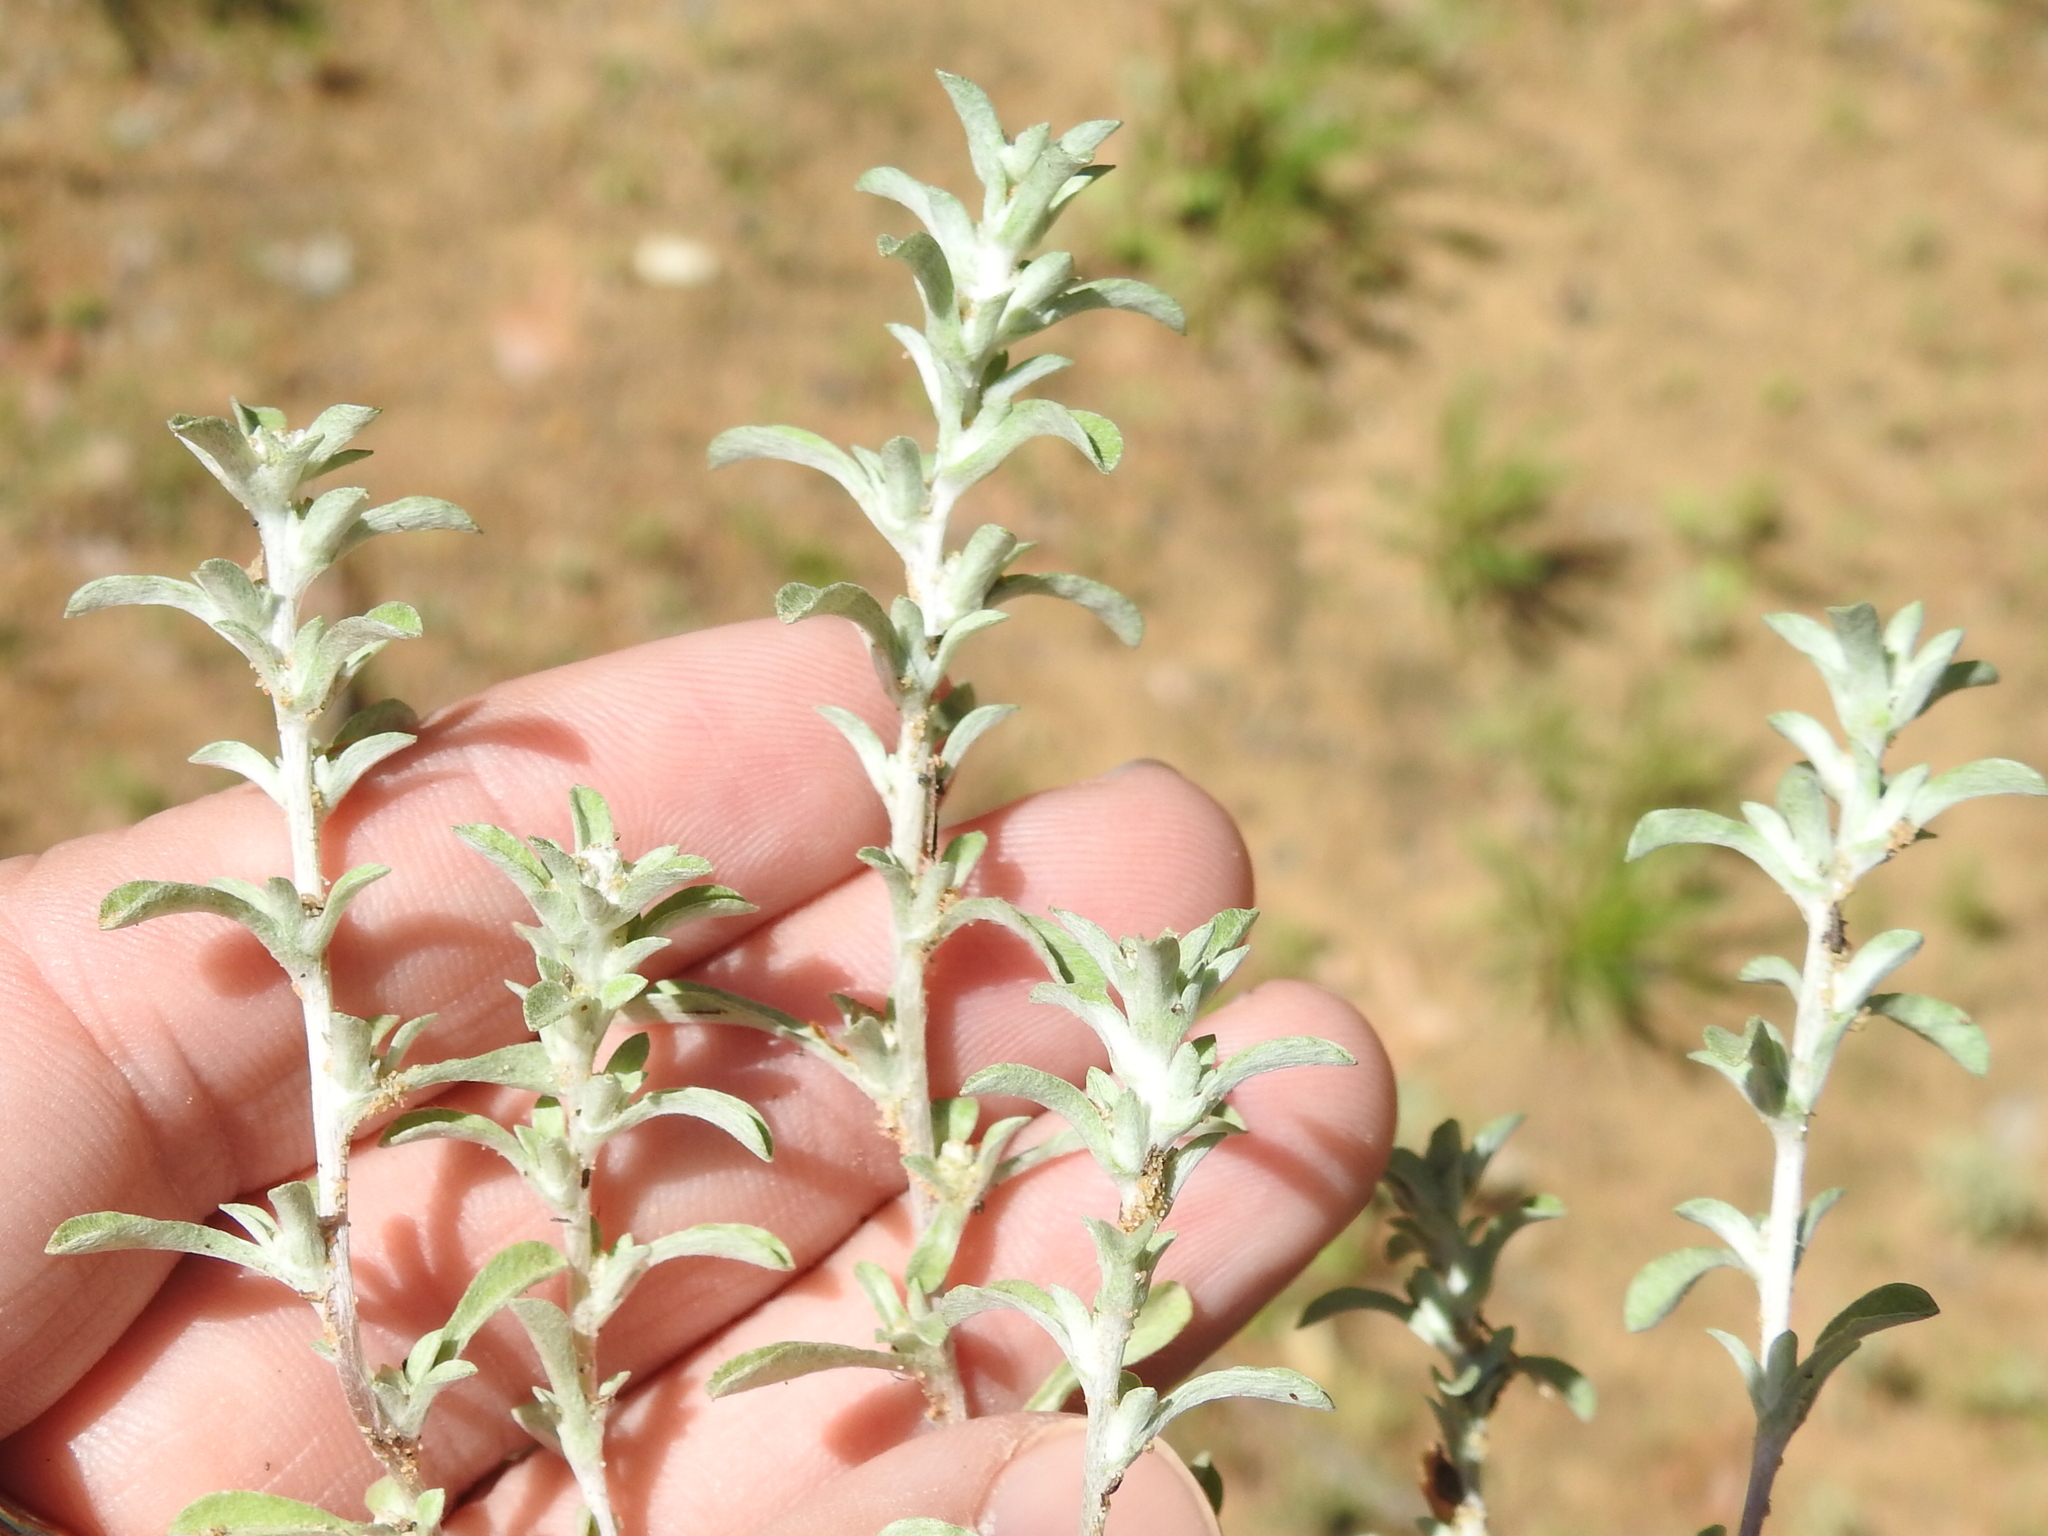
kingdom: Plantae
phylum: Tracheophyta
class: Magnoliopsida
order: Asterales
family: Asteraceae
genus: Diaperia
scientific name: Diaperia candida
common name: Silver rabbit-tobacco
